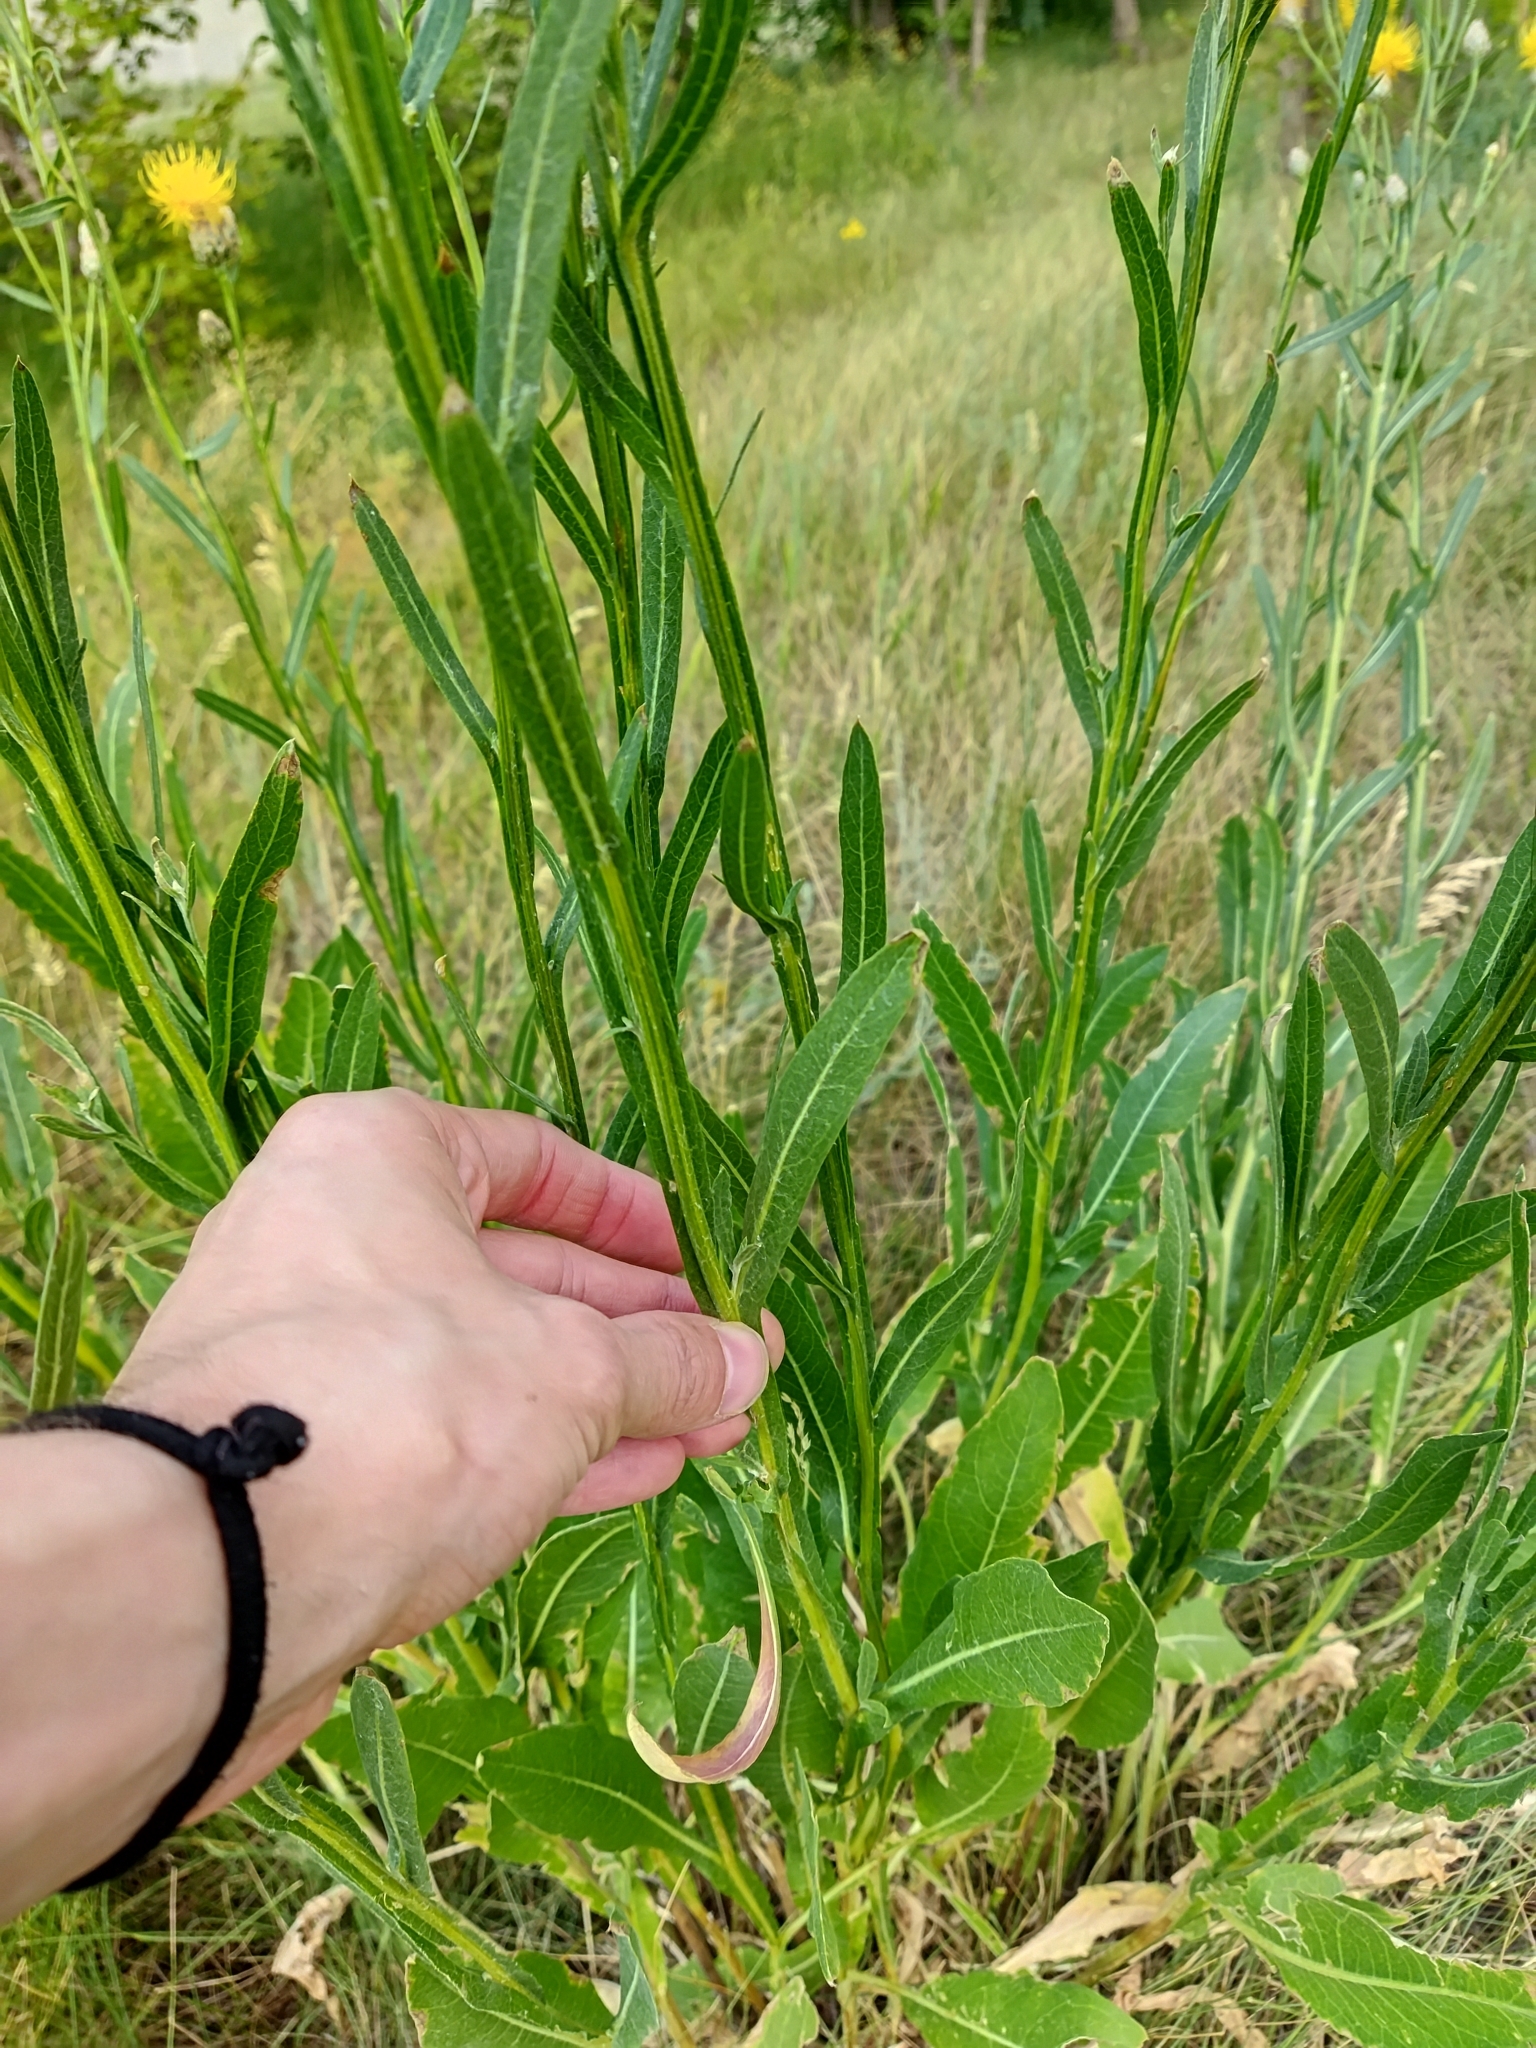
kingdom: Plantae
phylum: Tracheophyta
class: Magnoliopsida
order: Asterales
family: Asteraceae
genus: Centaurea
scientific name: Centaurea glastifolia
